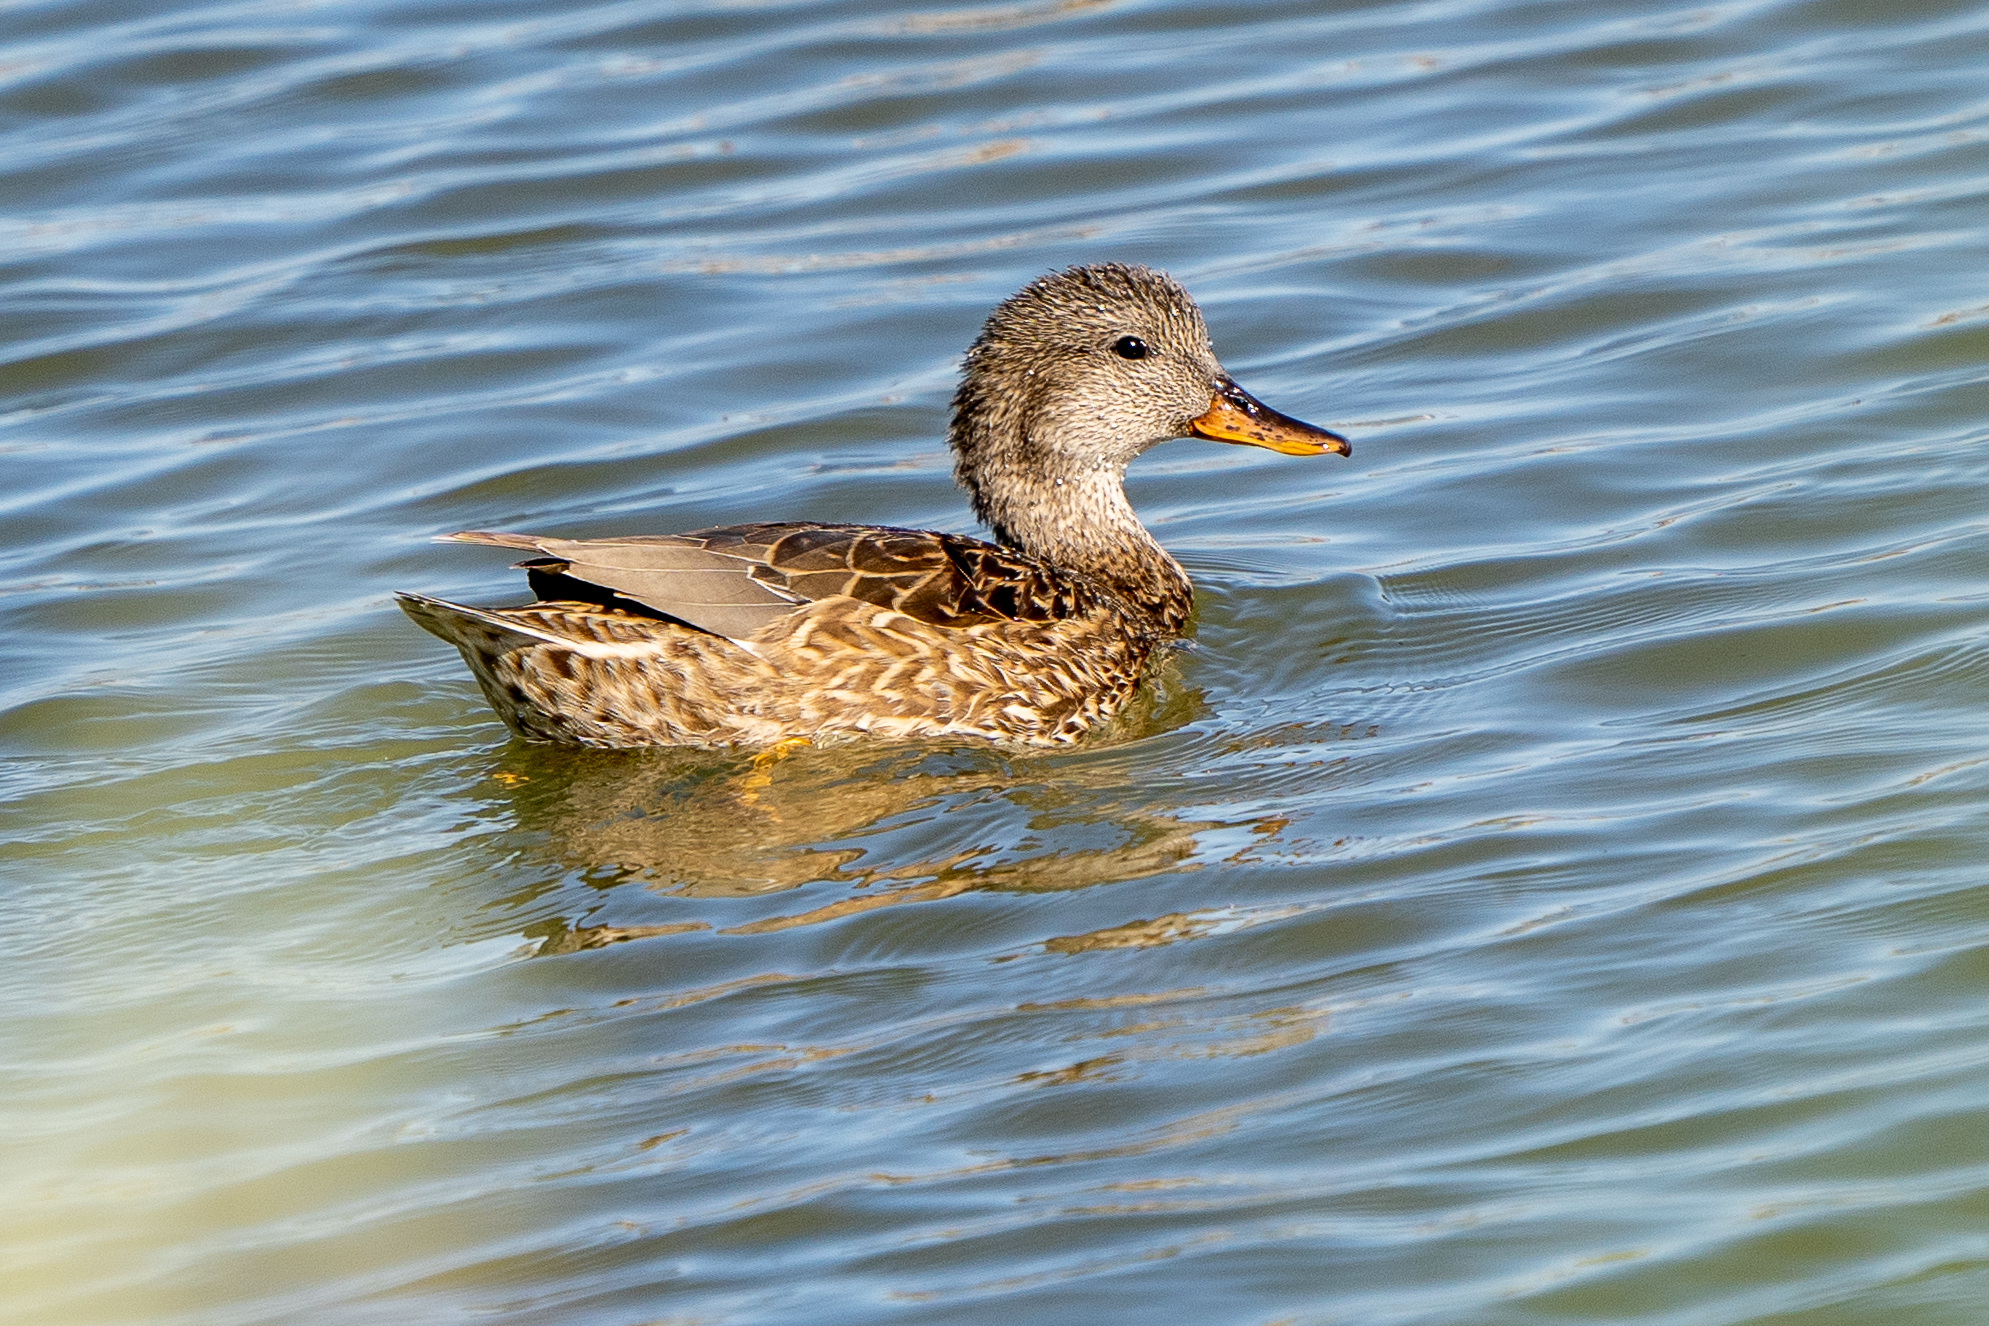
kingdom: Animalia
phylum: Chordata
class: Aves
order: Anseriformes
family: Anatidae
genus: Mareca
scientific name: Mareca strepera
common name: Gadwall
